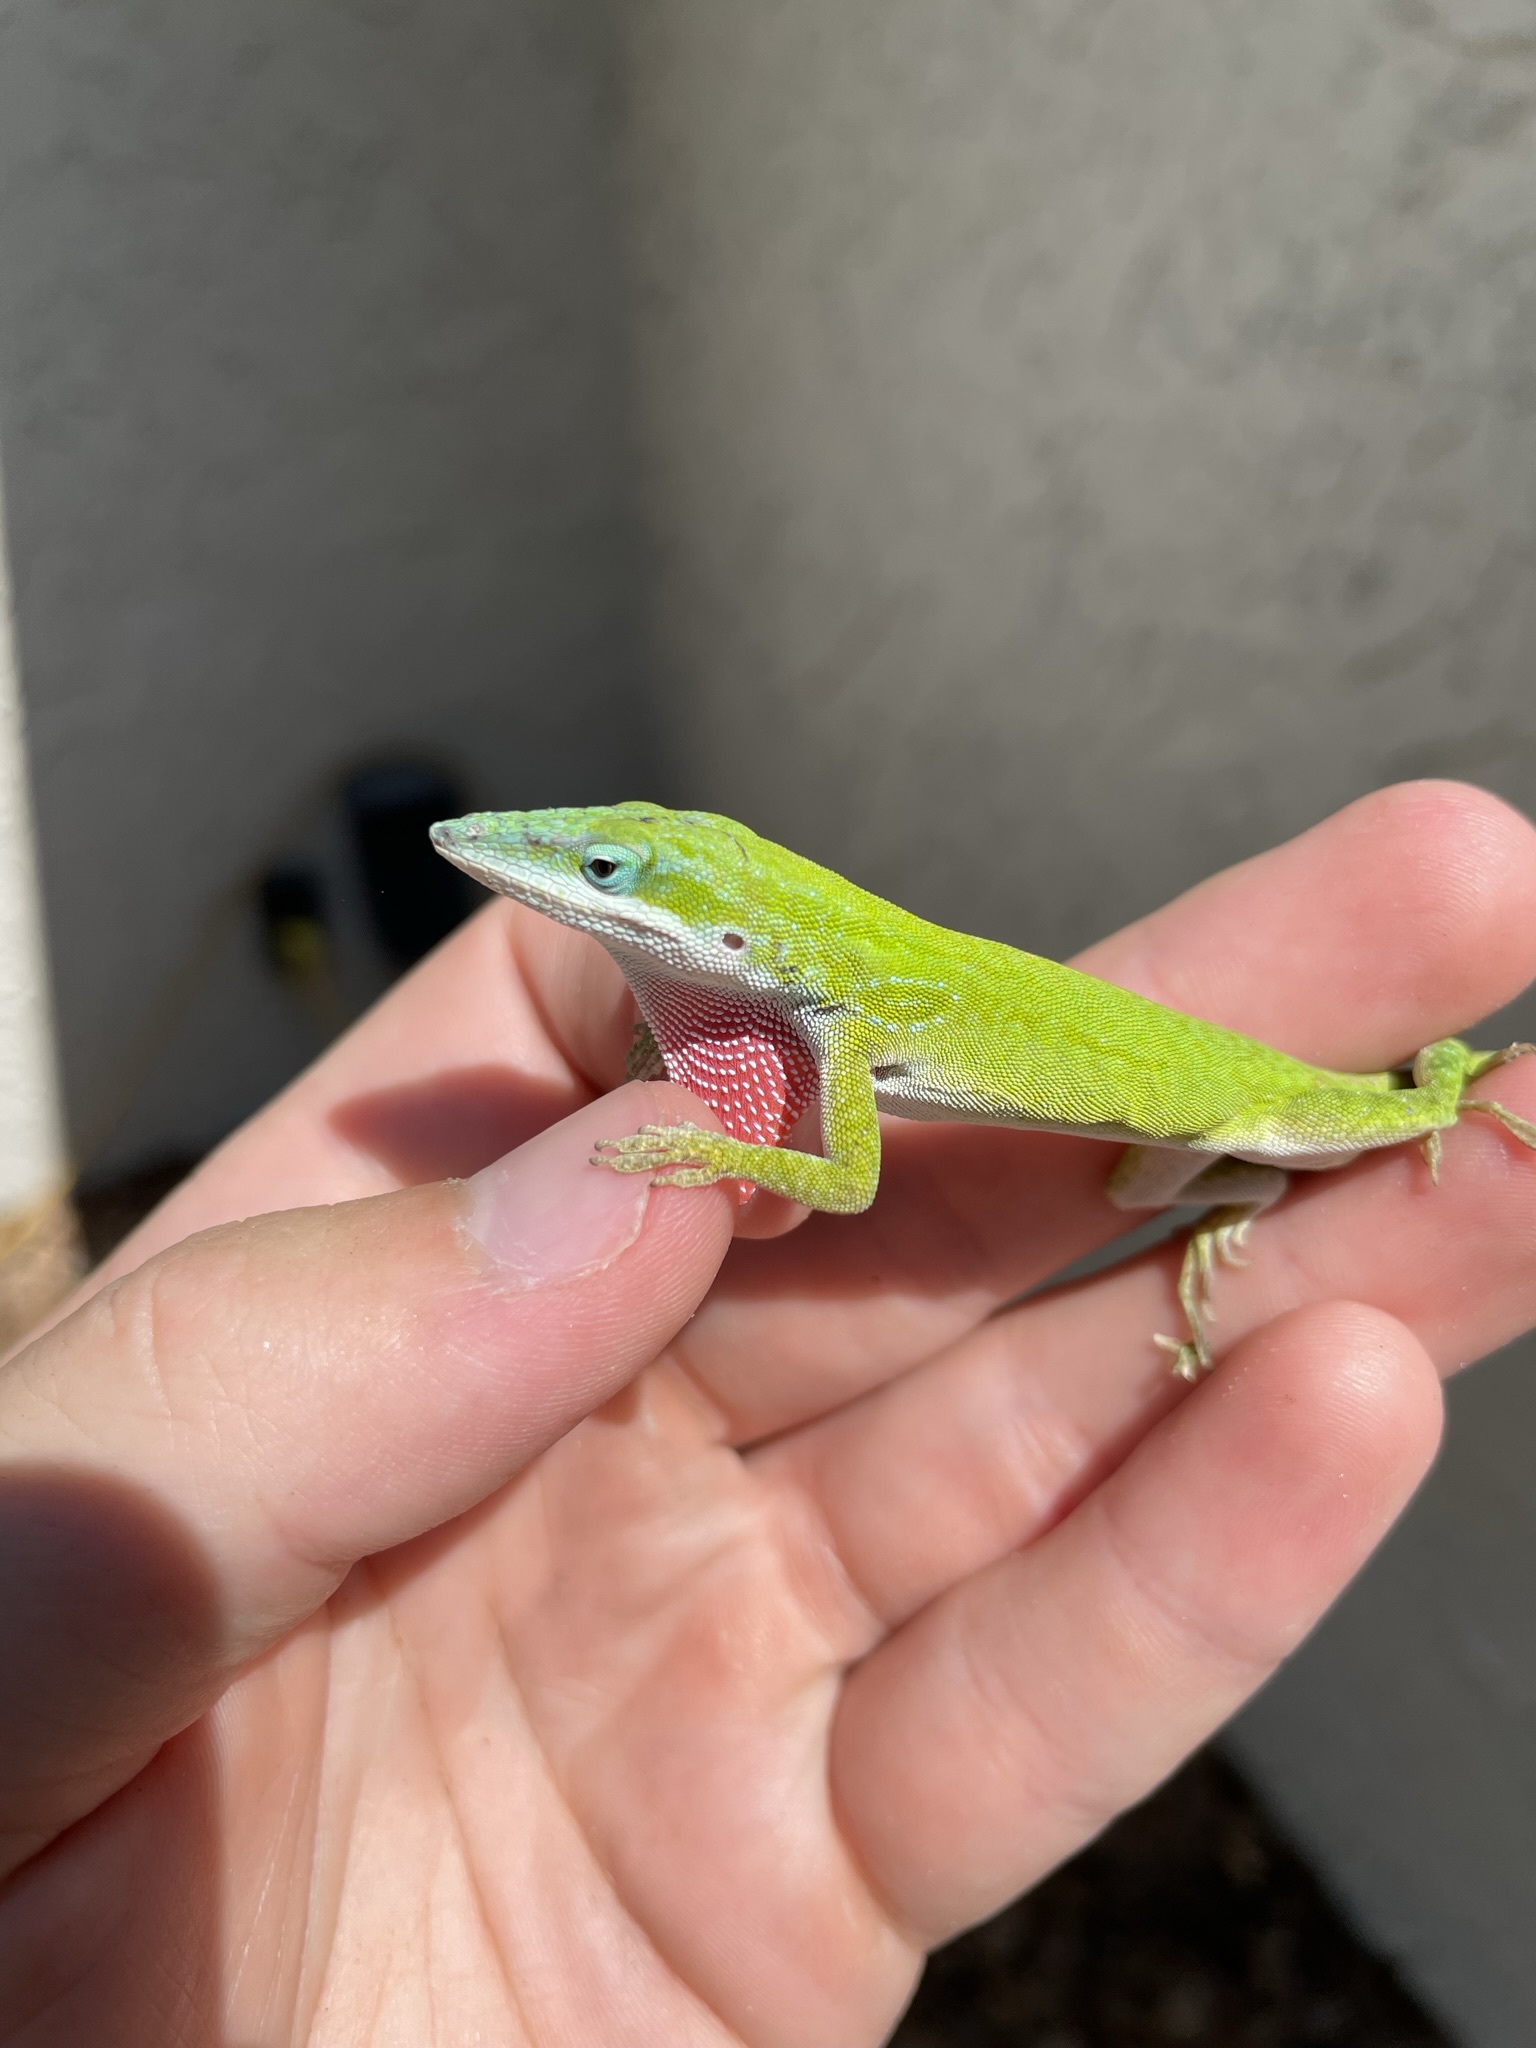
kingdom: Animalia
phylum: Chordata
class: Squamata
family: Dactyloidae
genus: Anolis
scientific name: Anolis carolinensis
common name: Green anole
